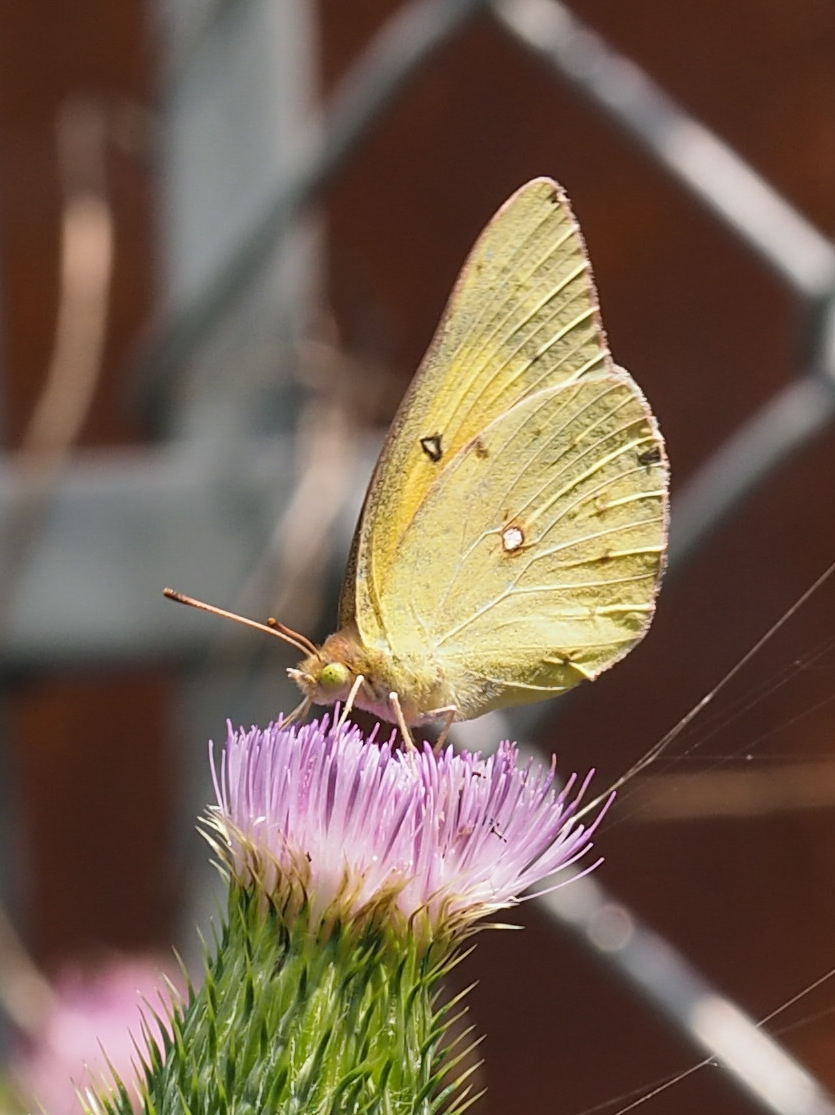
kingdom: Animalia
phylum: Arthropoda
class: Insecta
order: Lepidoptera
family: Pieridae
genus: Colias
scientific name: Colias eurytheme
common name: Alfalfa butterfly
